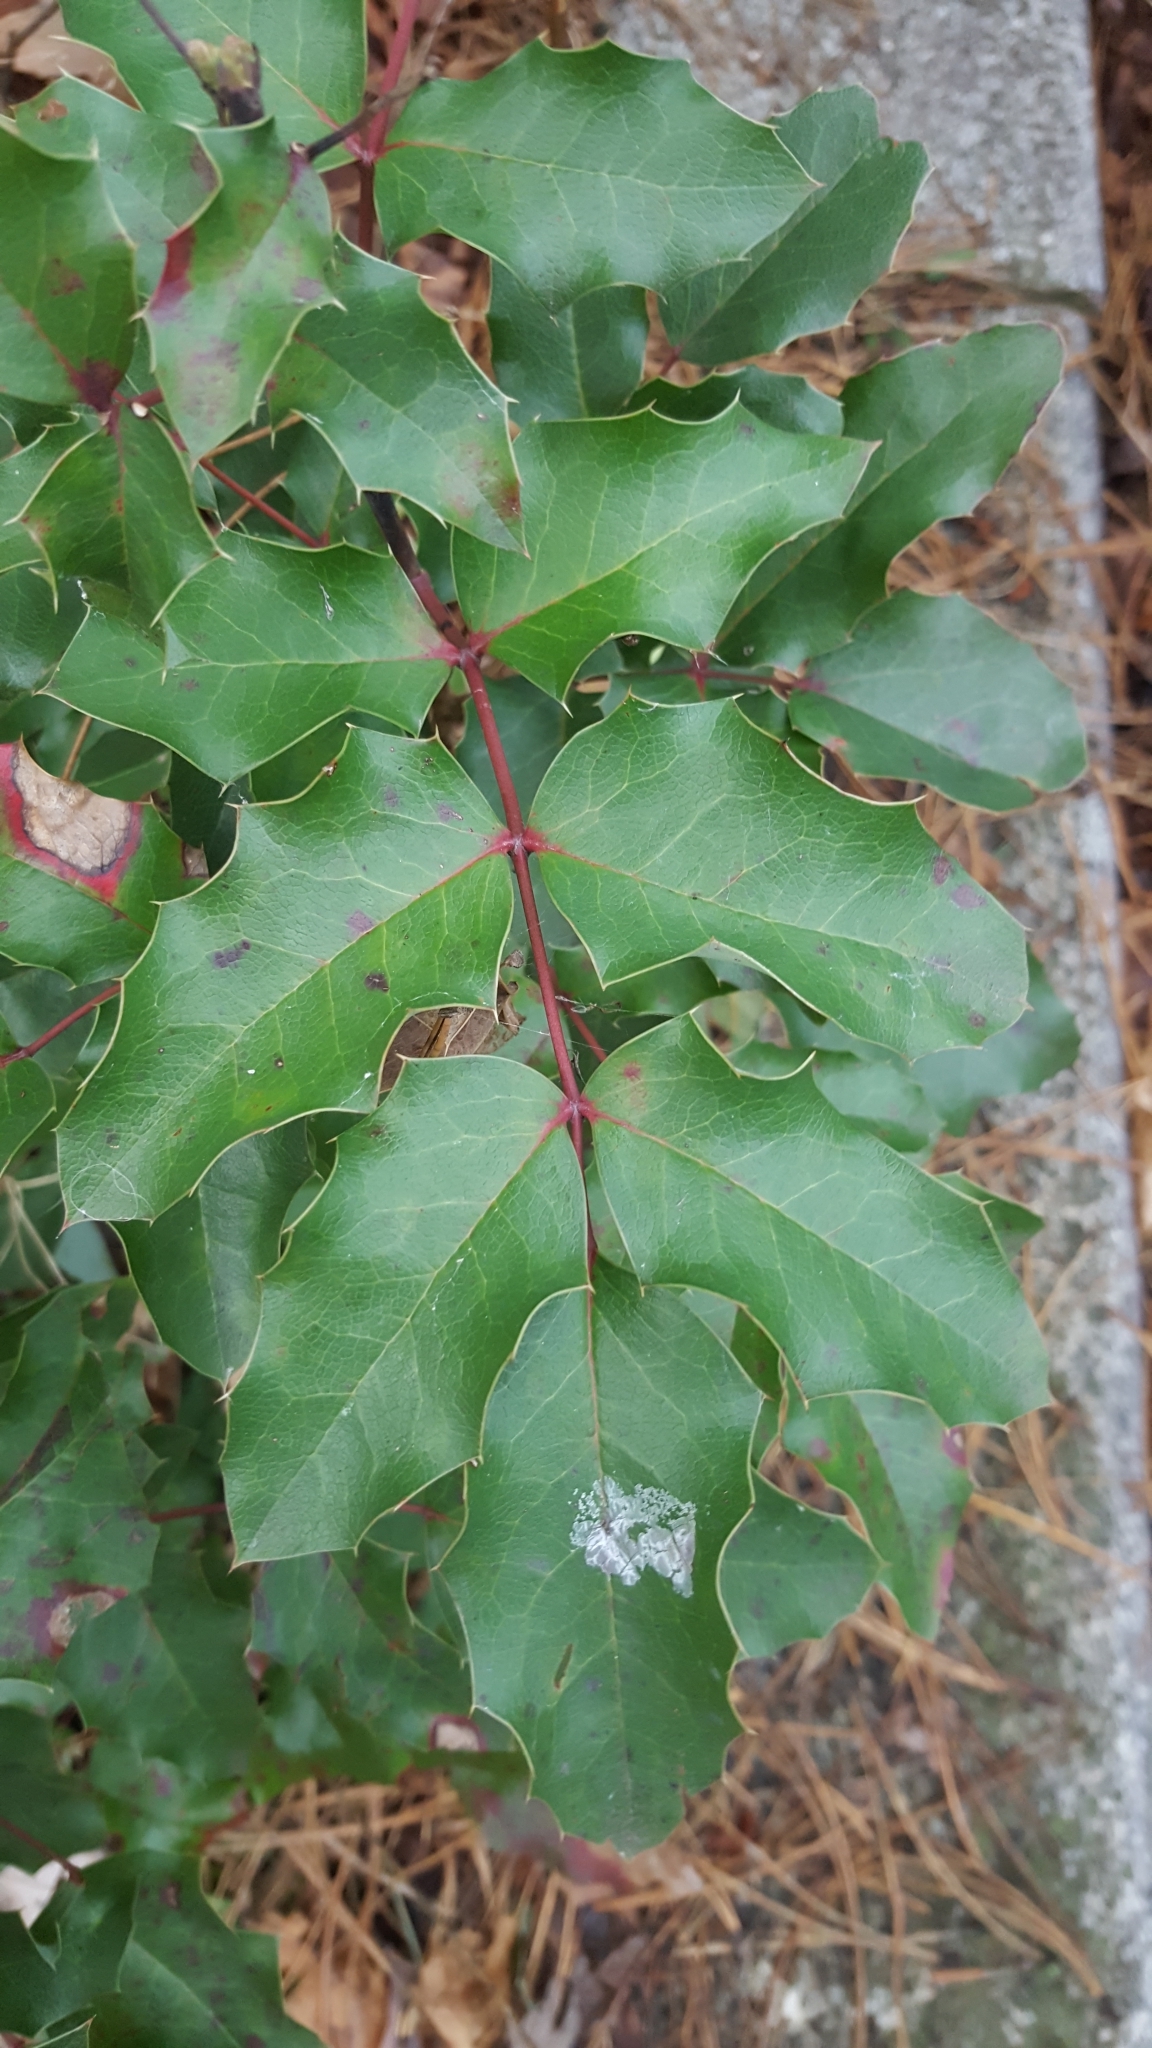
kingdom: Plantae
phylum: Tracheophyta
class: Magnoliopsida
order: Ranunculales
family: Berberidaceae
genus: Mahonia
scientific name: Mahonia aquifolium
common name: Oregon-grape
